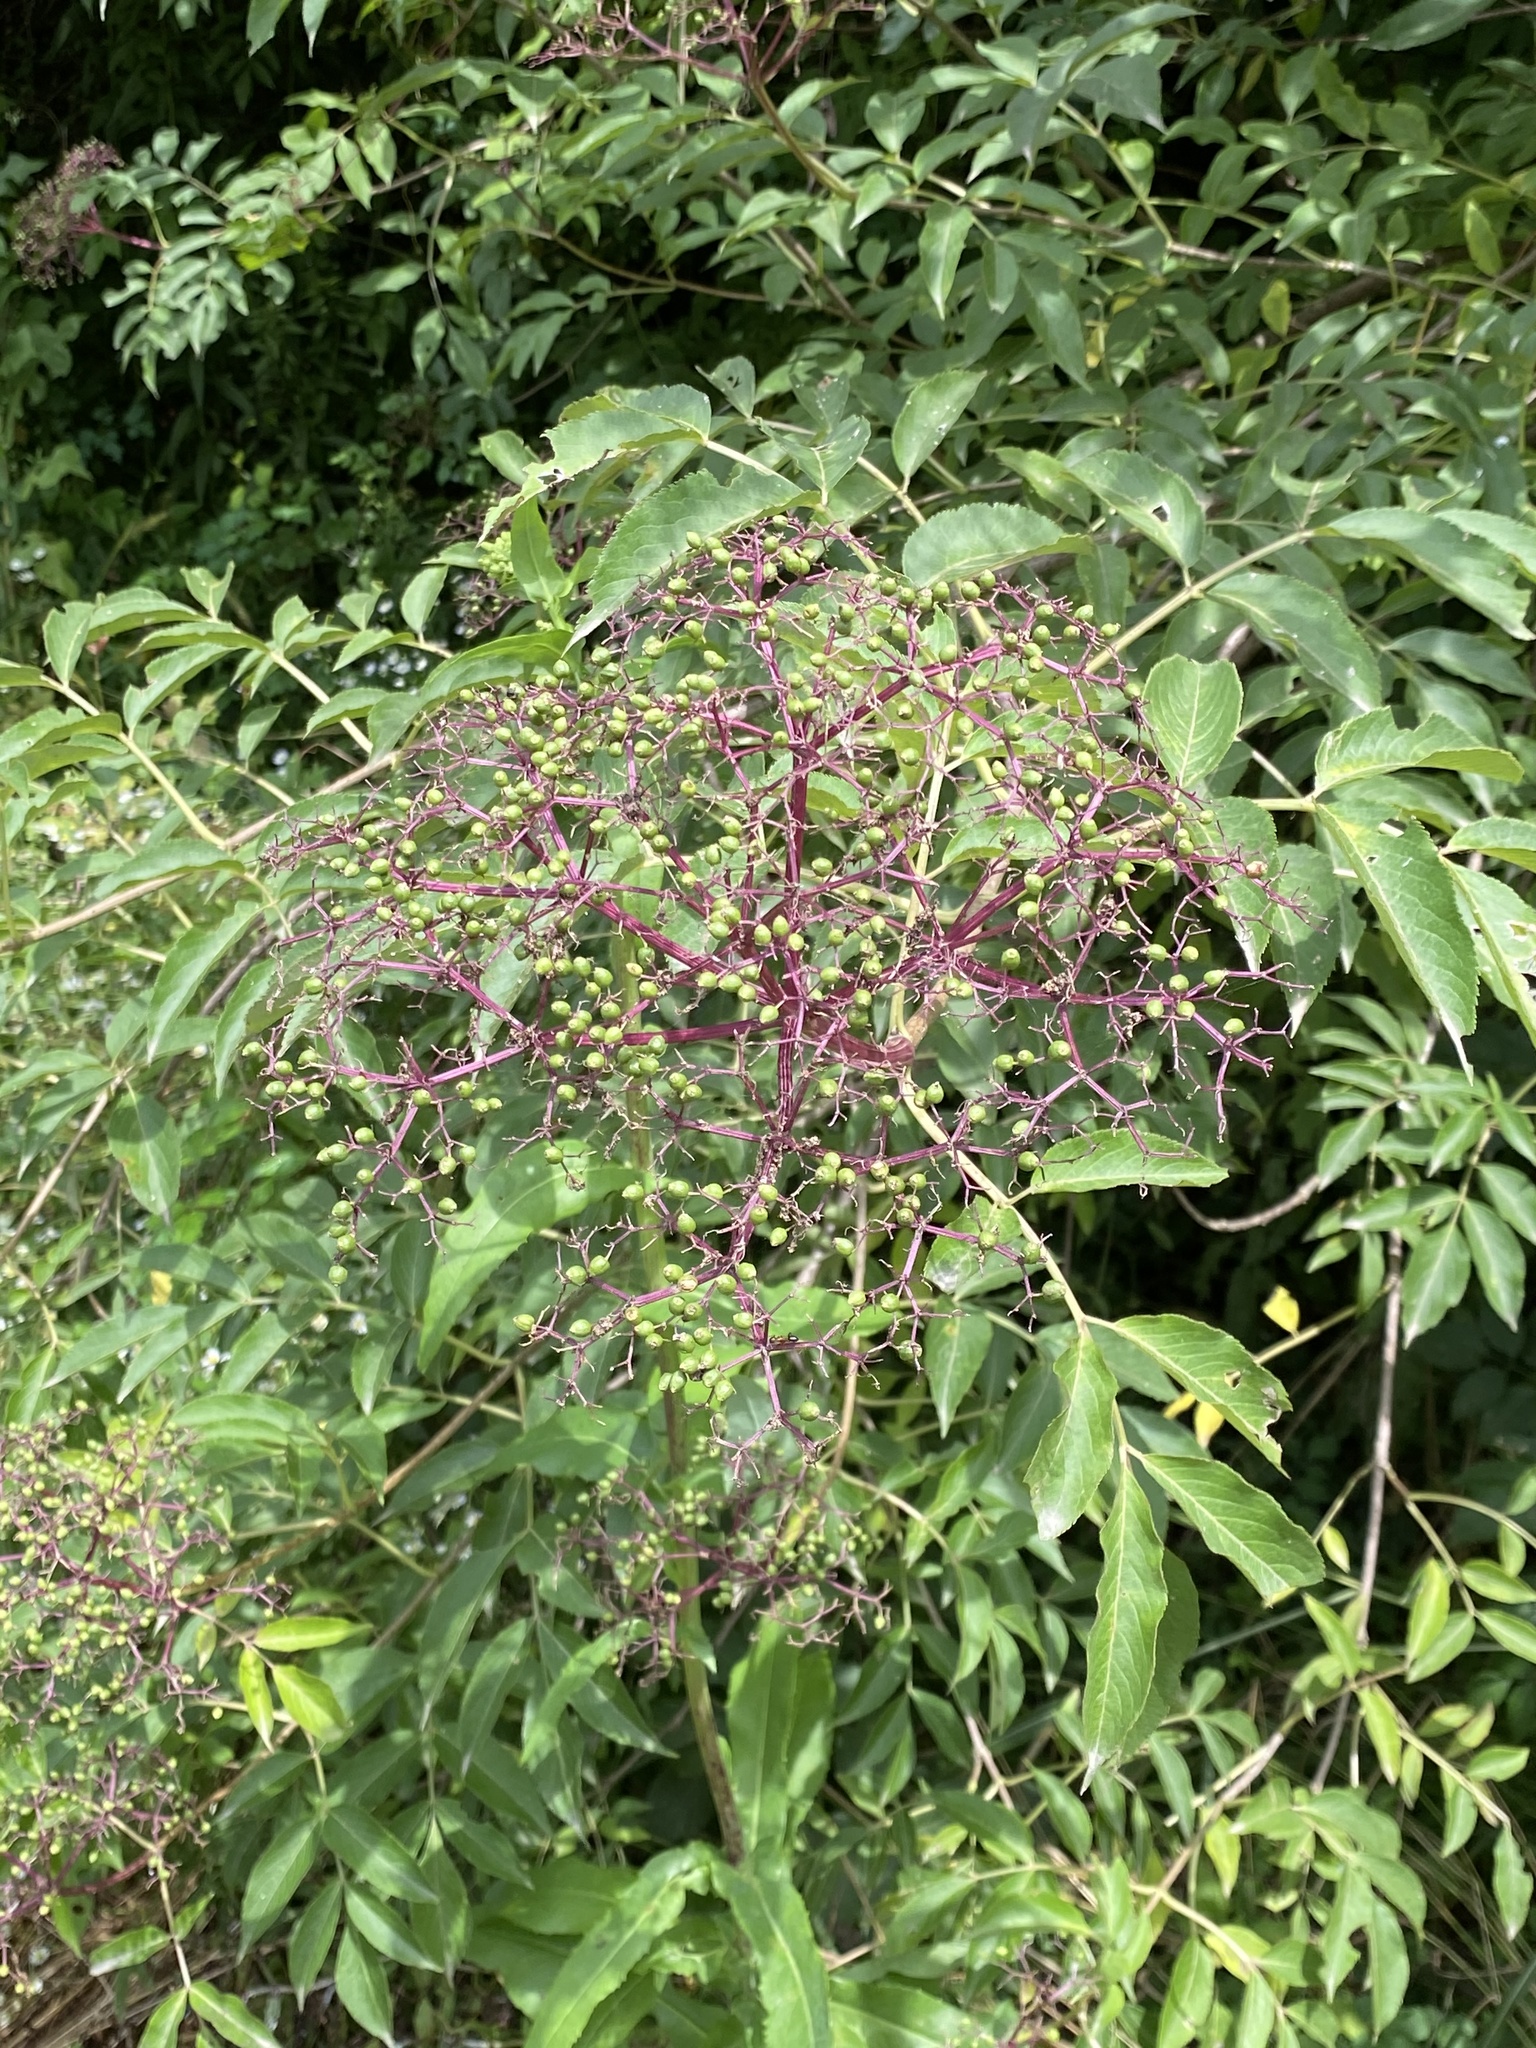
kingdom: Plantae
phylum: Tracheophyta
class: Magnoliopsida
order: Dipsacales
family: Viburnaceae
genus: Sambucus
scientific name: Sambucus canadensis
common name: American elder
